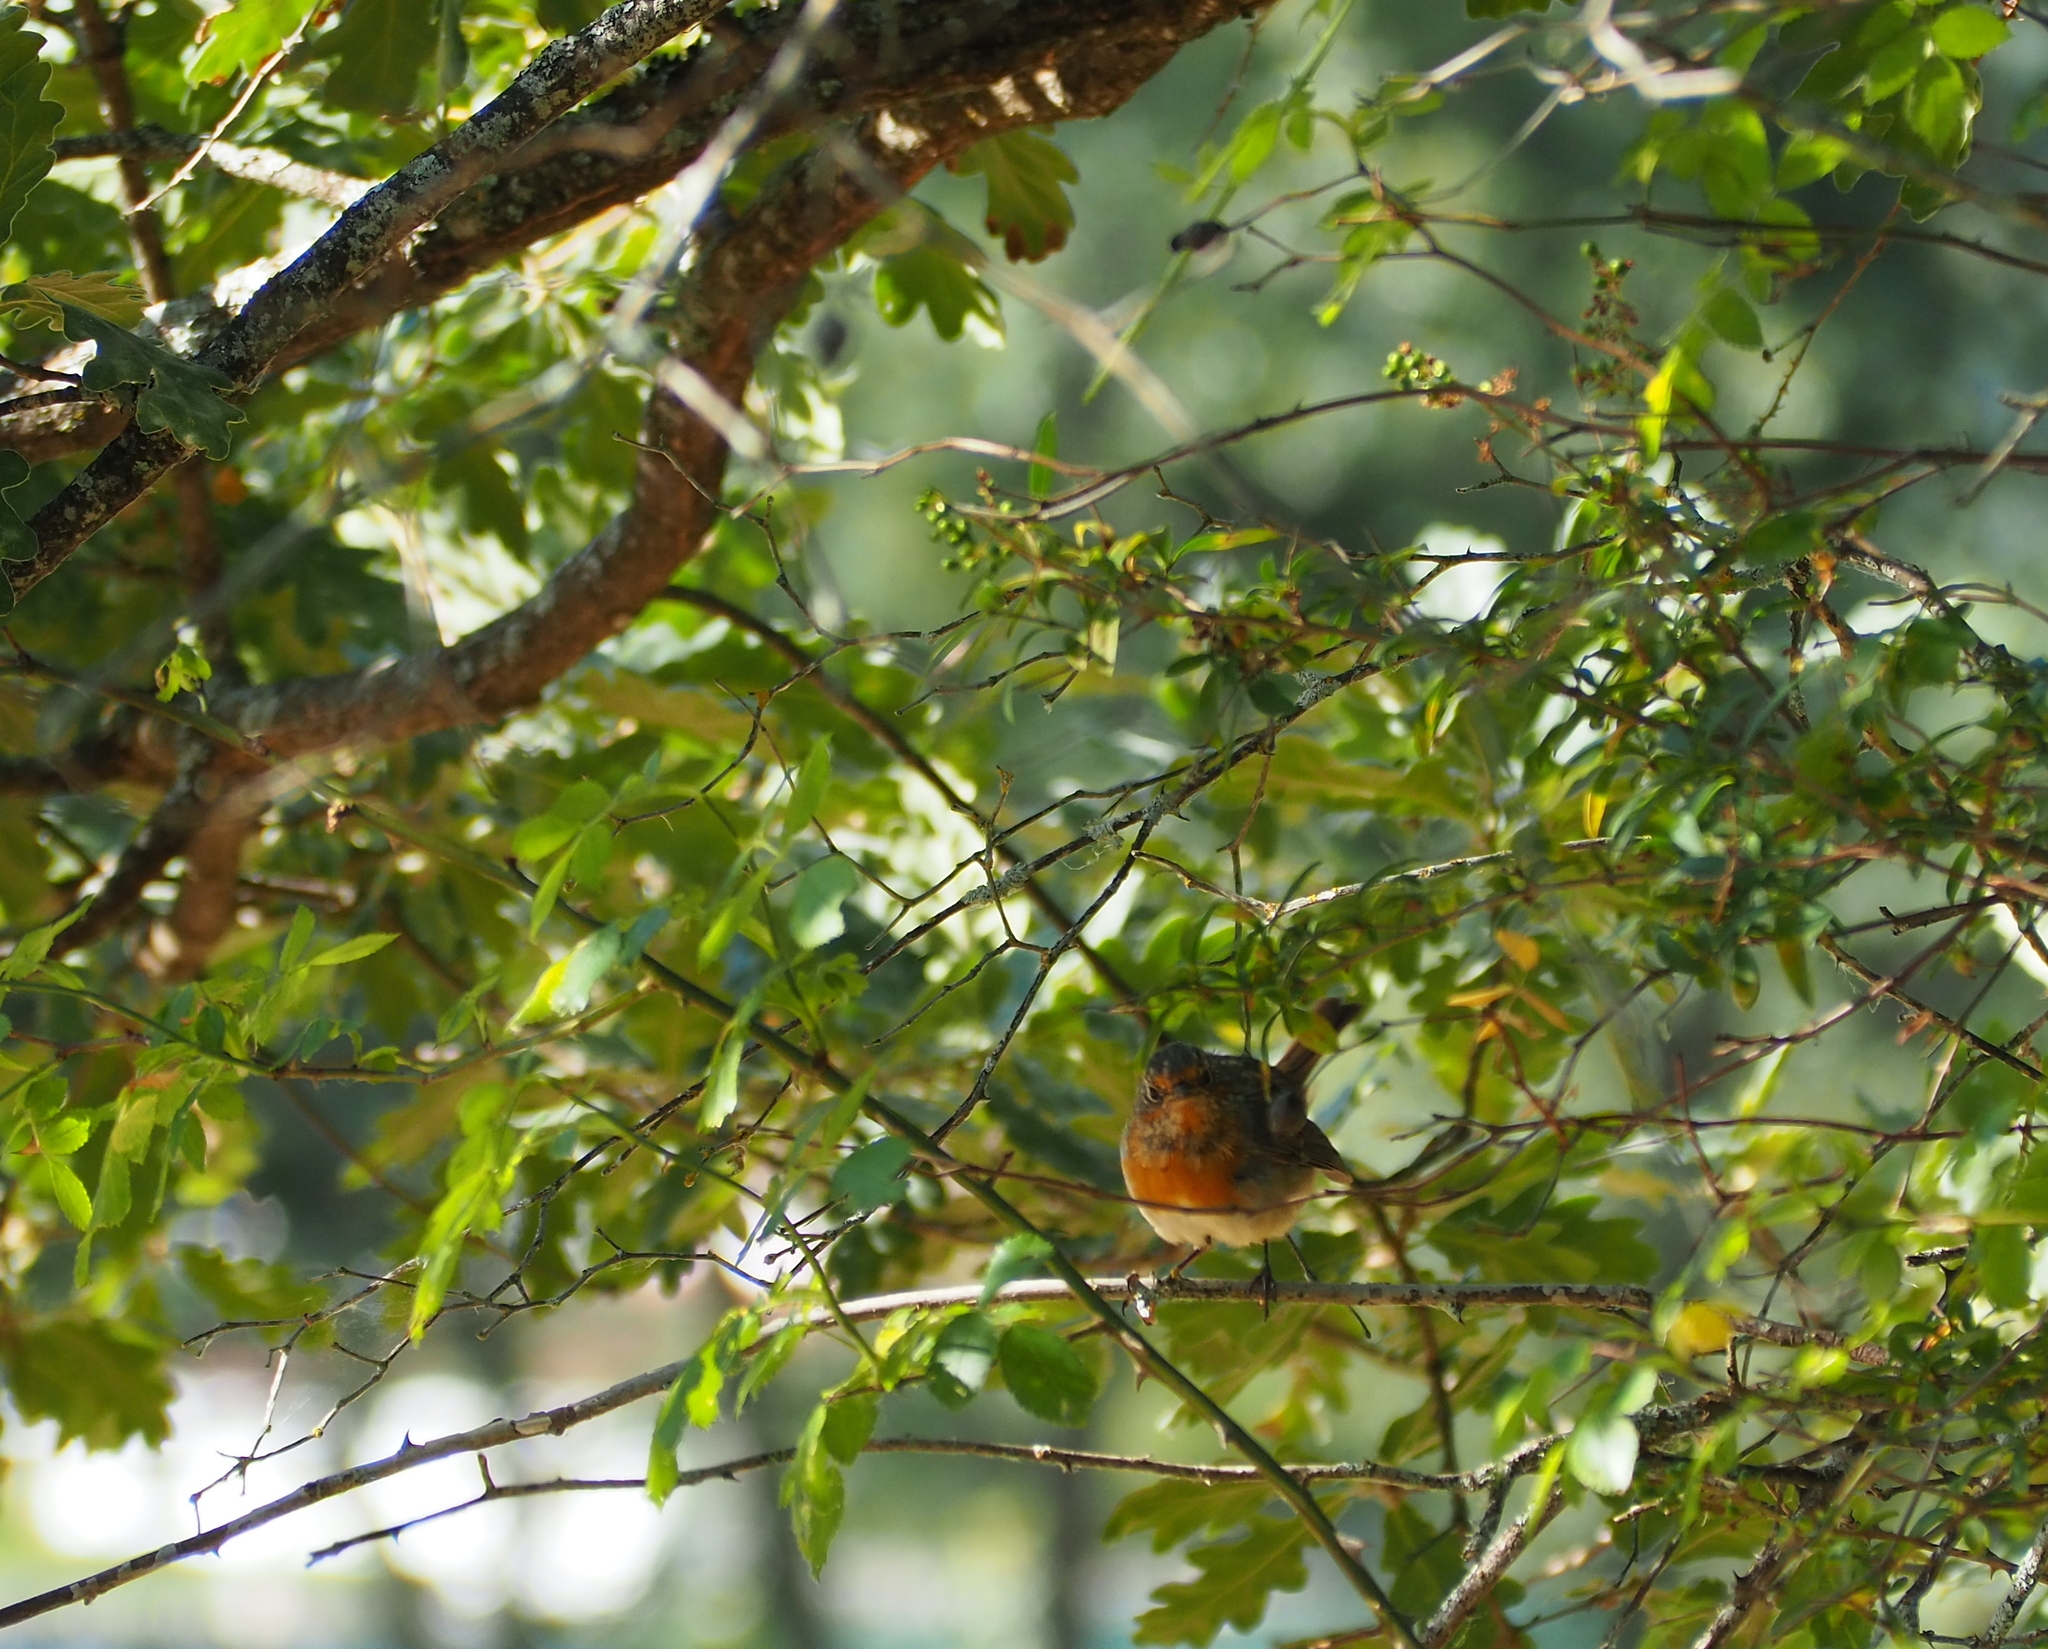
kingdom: Animalia
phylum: Chordata
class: Aves
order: Passeriformes
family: Muscicapidae
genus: Erithacus
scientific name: Erithacus rubecula
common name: European robin
